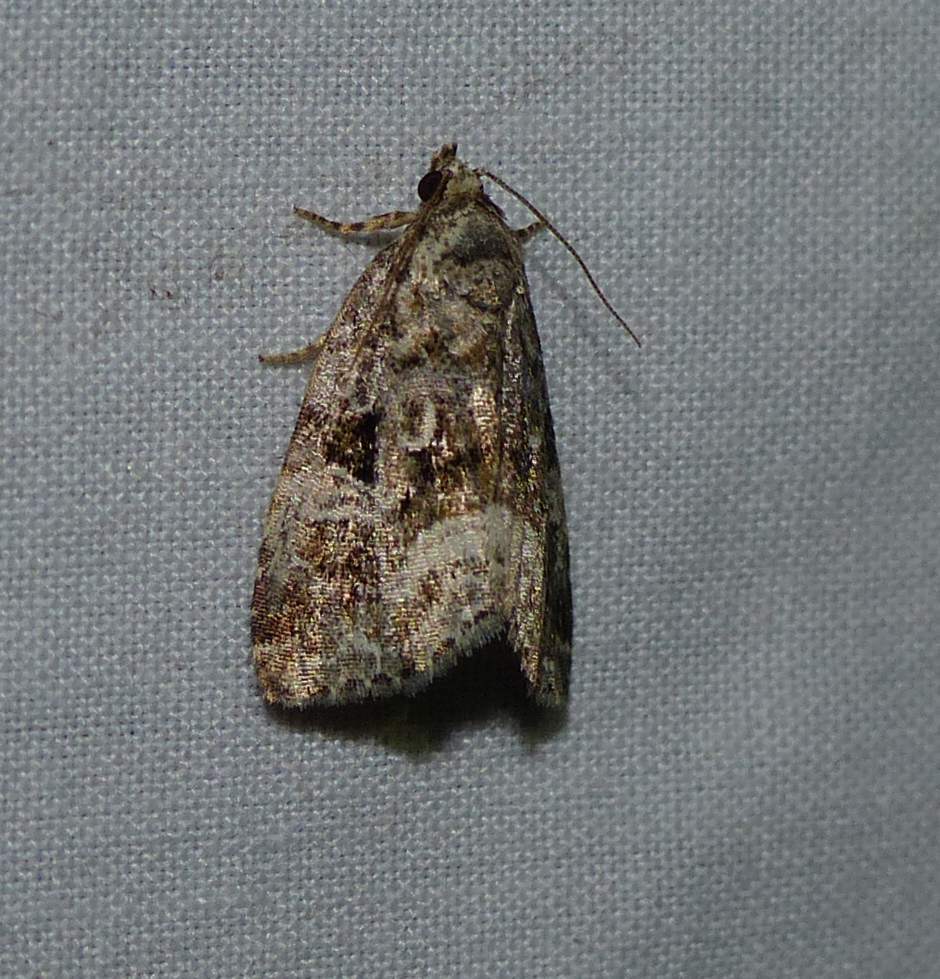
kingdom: Animalia
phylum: Arthropoda
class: Insecta
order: Lepidoptera
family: Noctuidae
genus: Protodeltote
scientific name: Protodeltote muscosula
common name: Large mossy glyph
